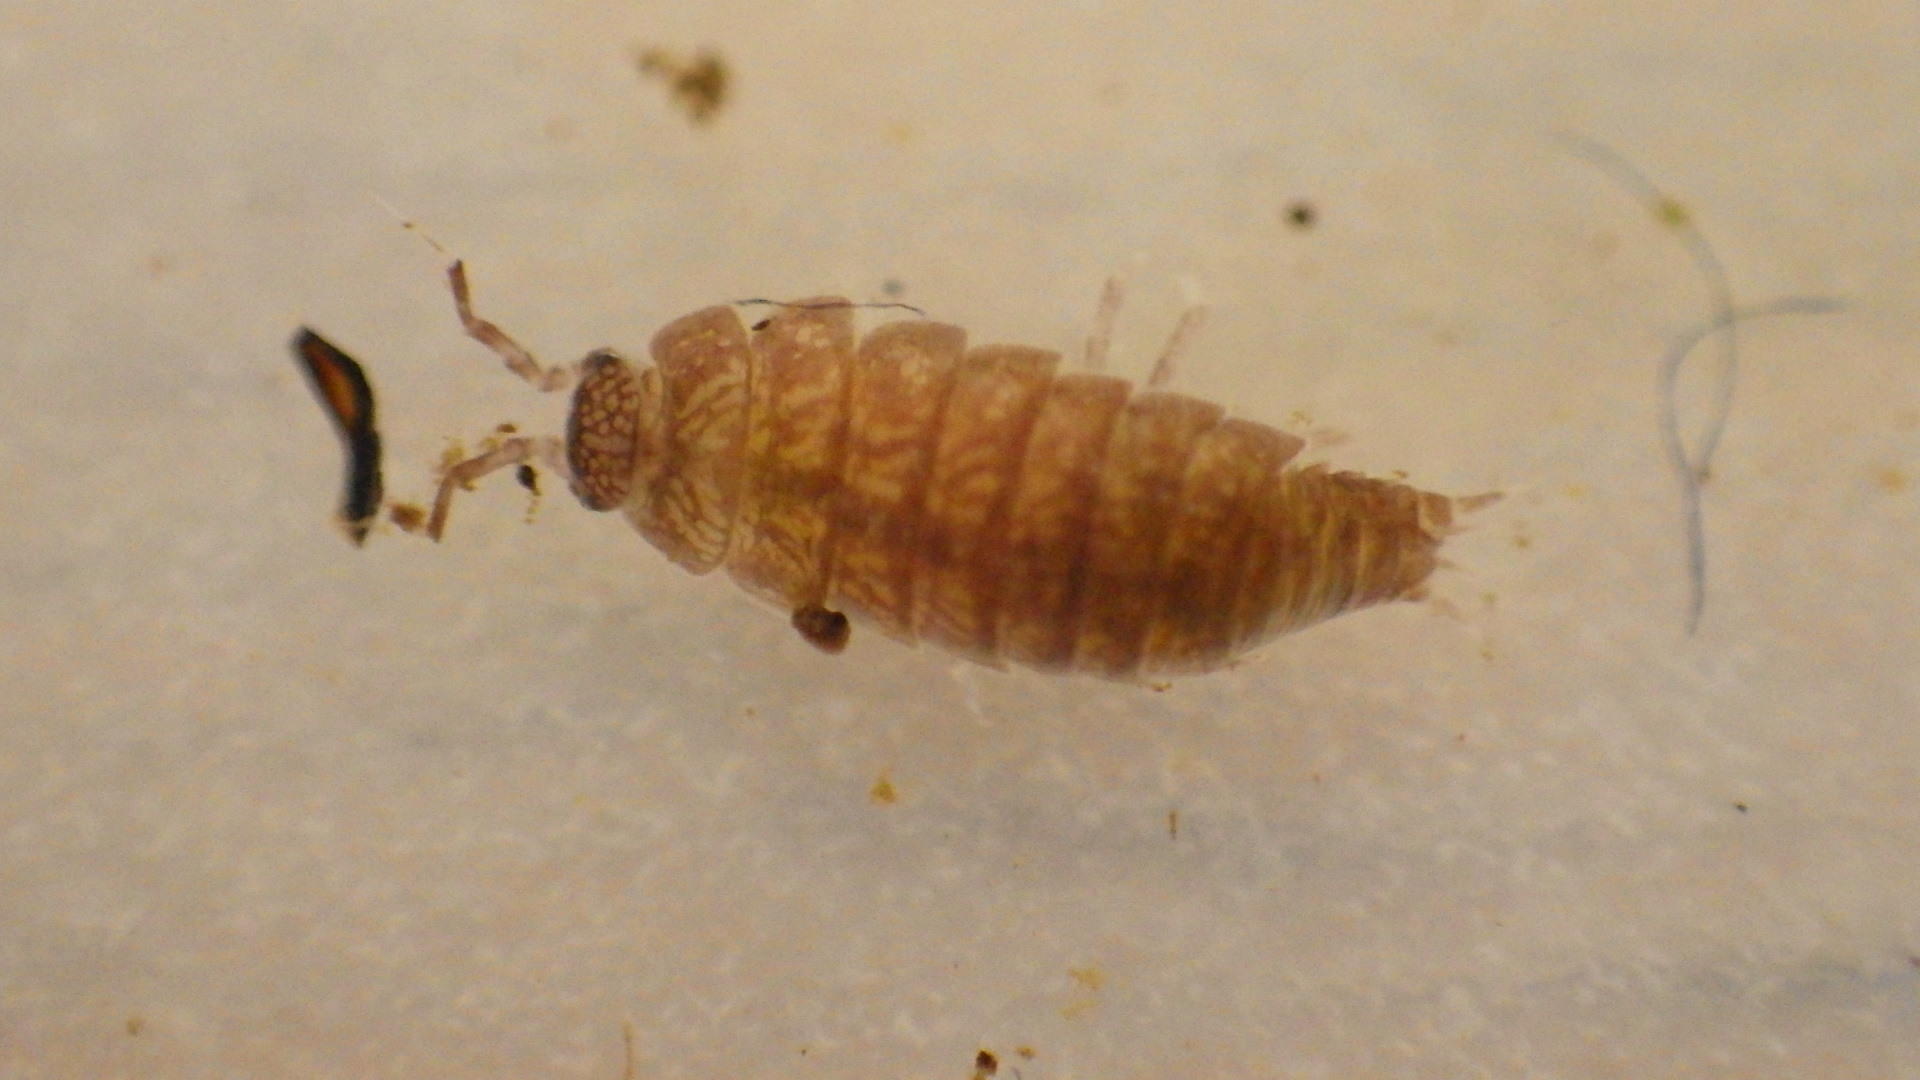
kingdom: Animalia
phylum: Arthropoda
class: Malacostraca
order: Isopoda
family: Trichoniscidae
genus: Hyloniscus
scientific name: Hyloniscus riparius
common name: Isopod
